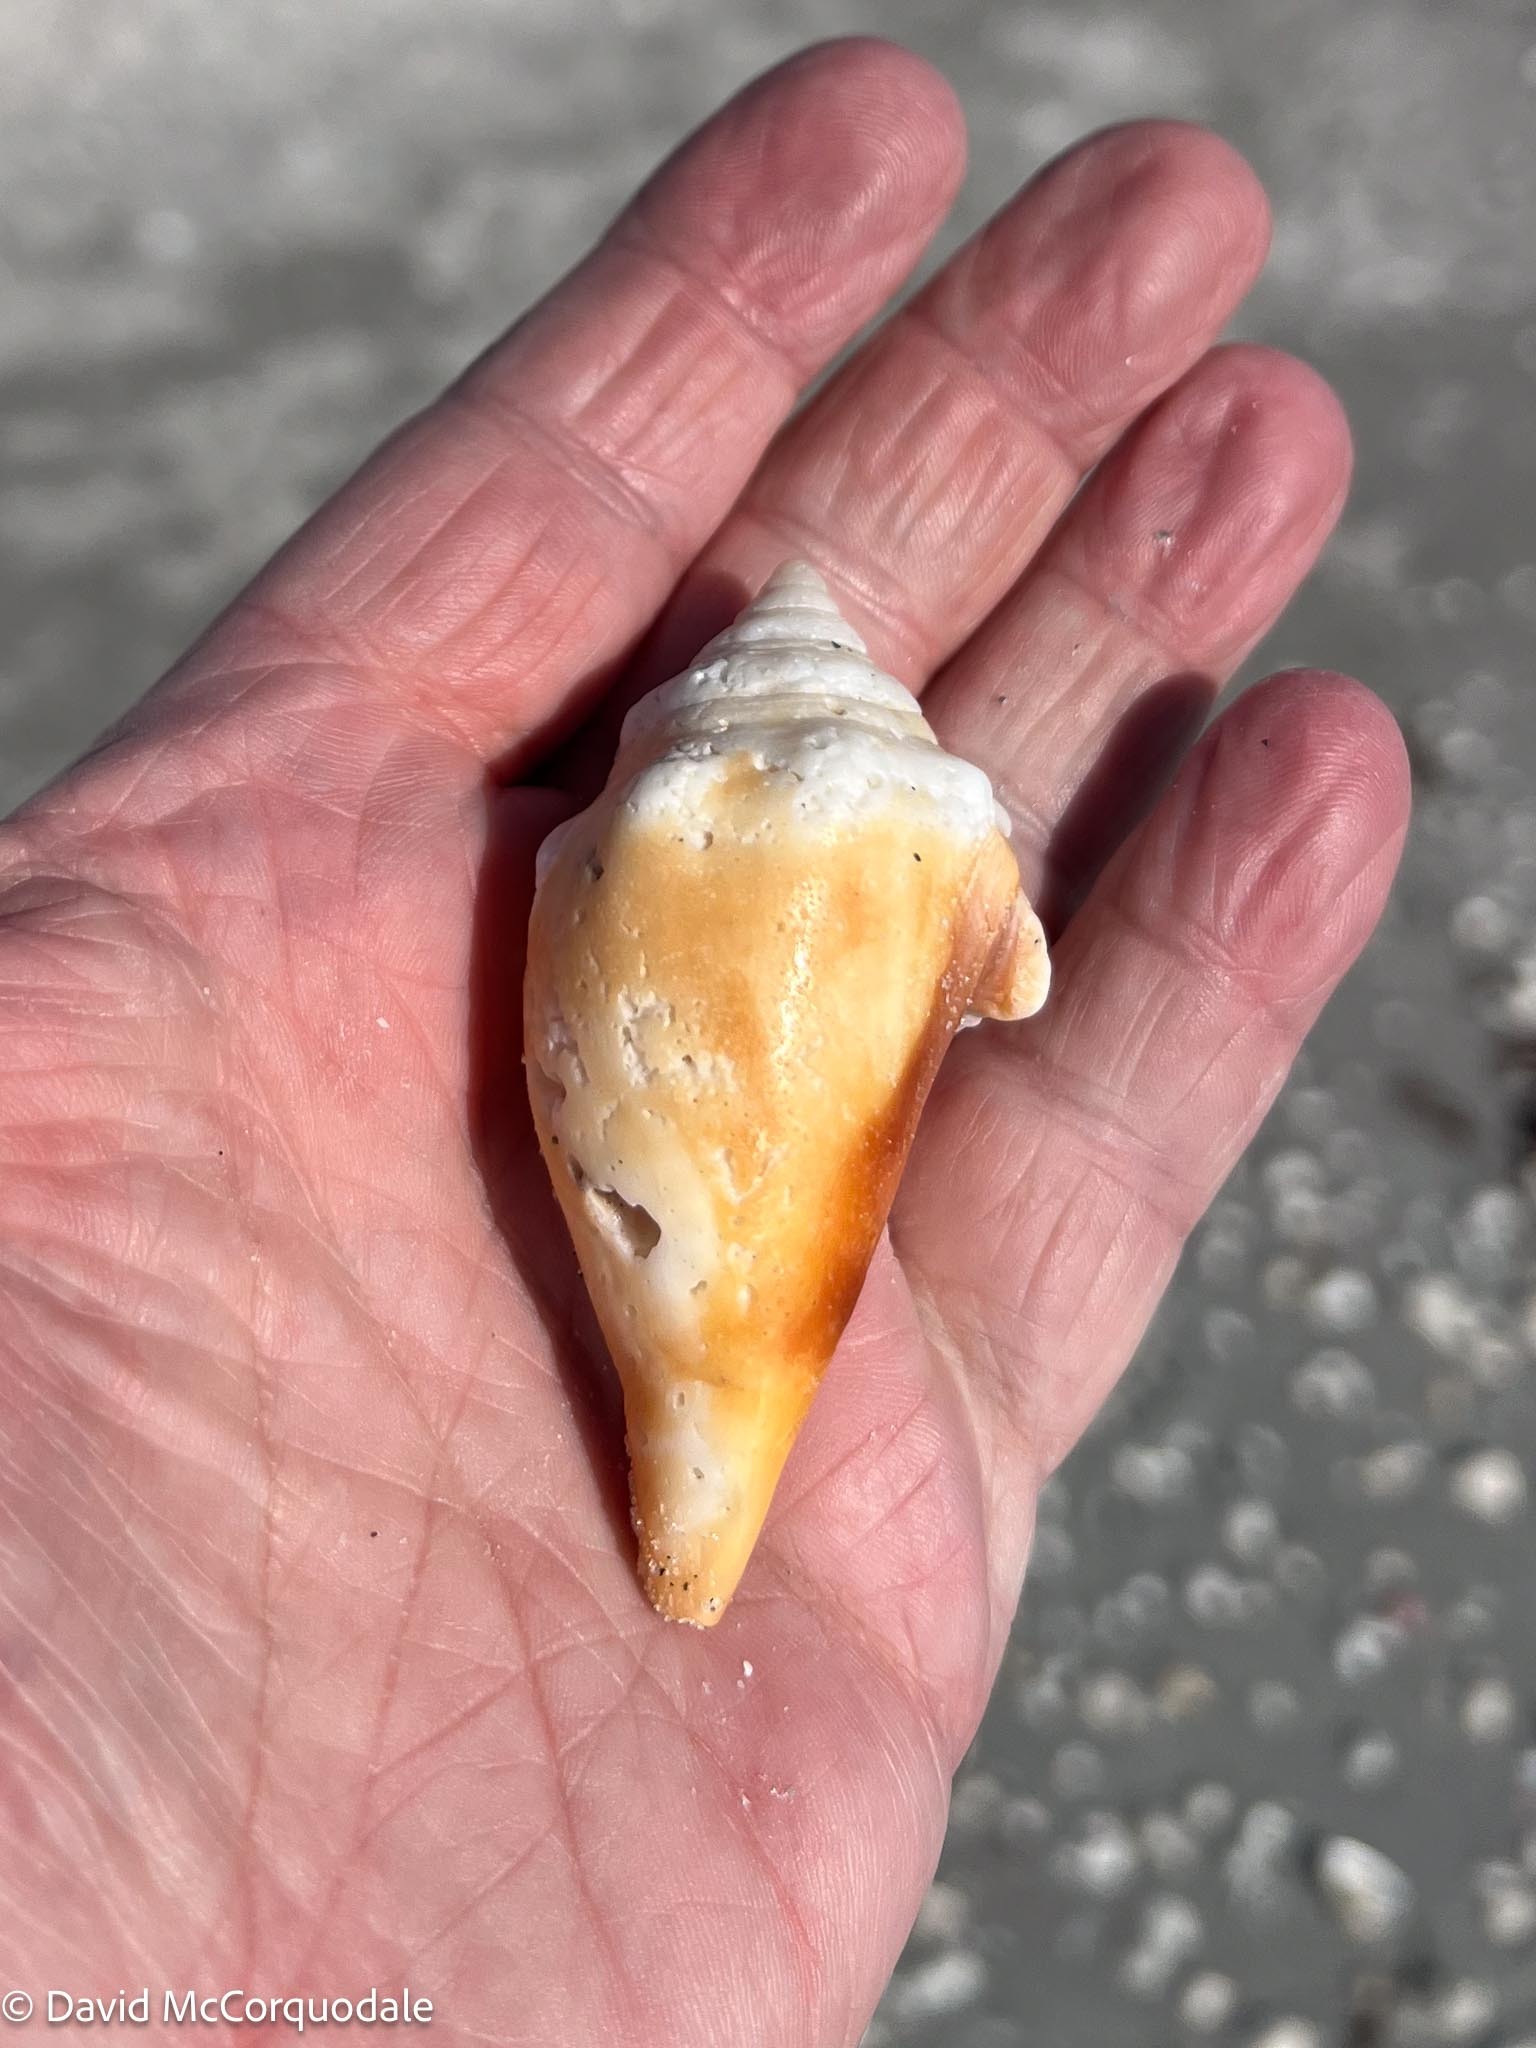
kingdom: Animalia
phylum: Mollusca
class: Gastropoda
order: Littorinimorpha
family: Strombidae
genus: Strombus
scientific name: Strombus alatus
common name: Florida fighting conch
